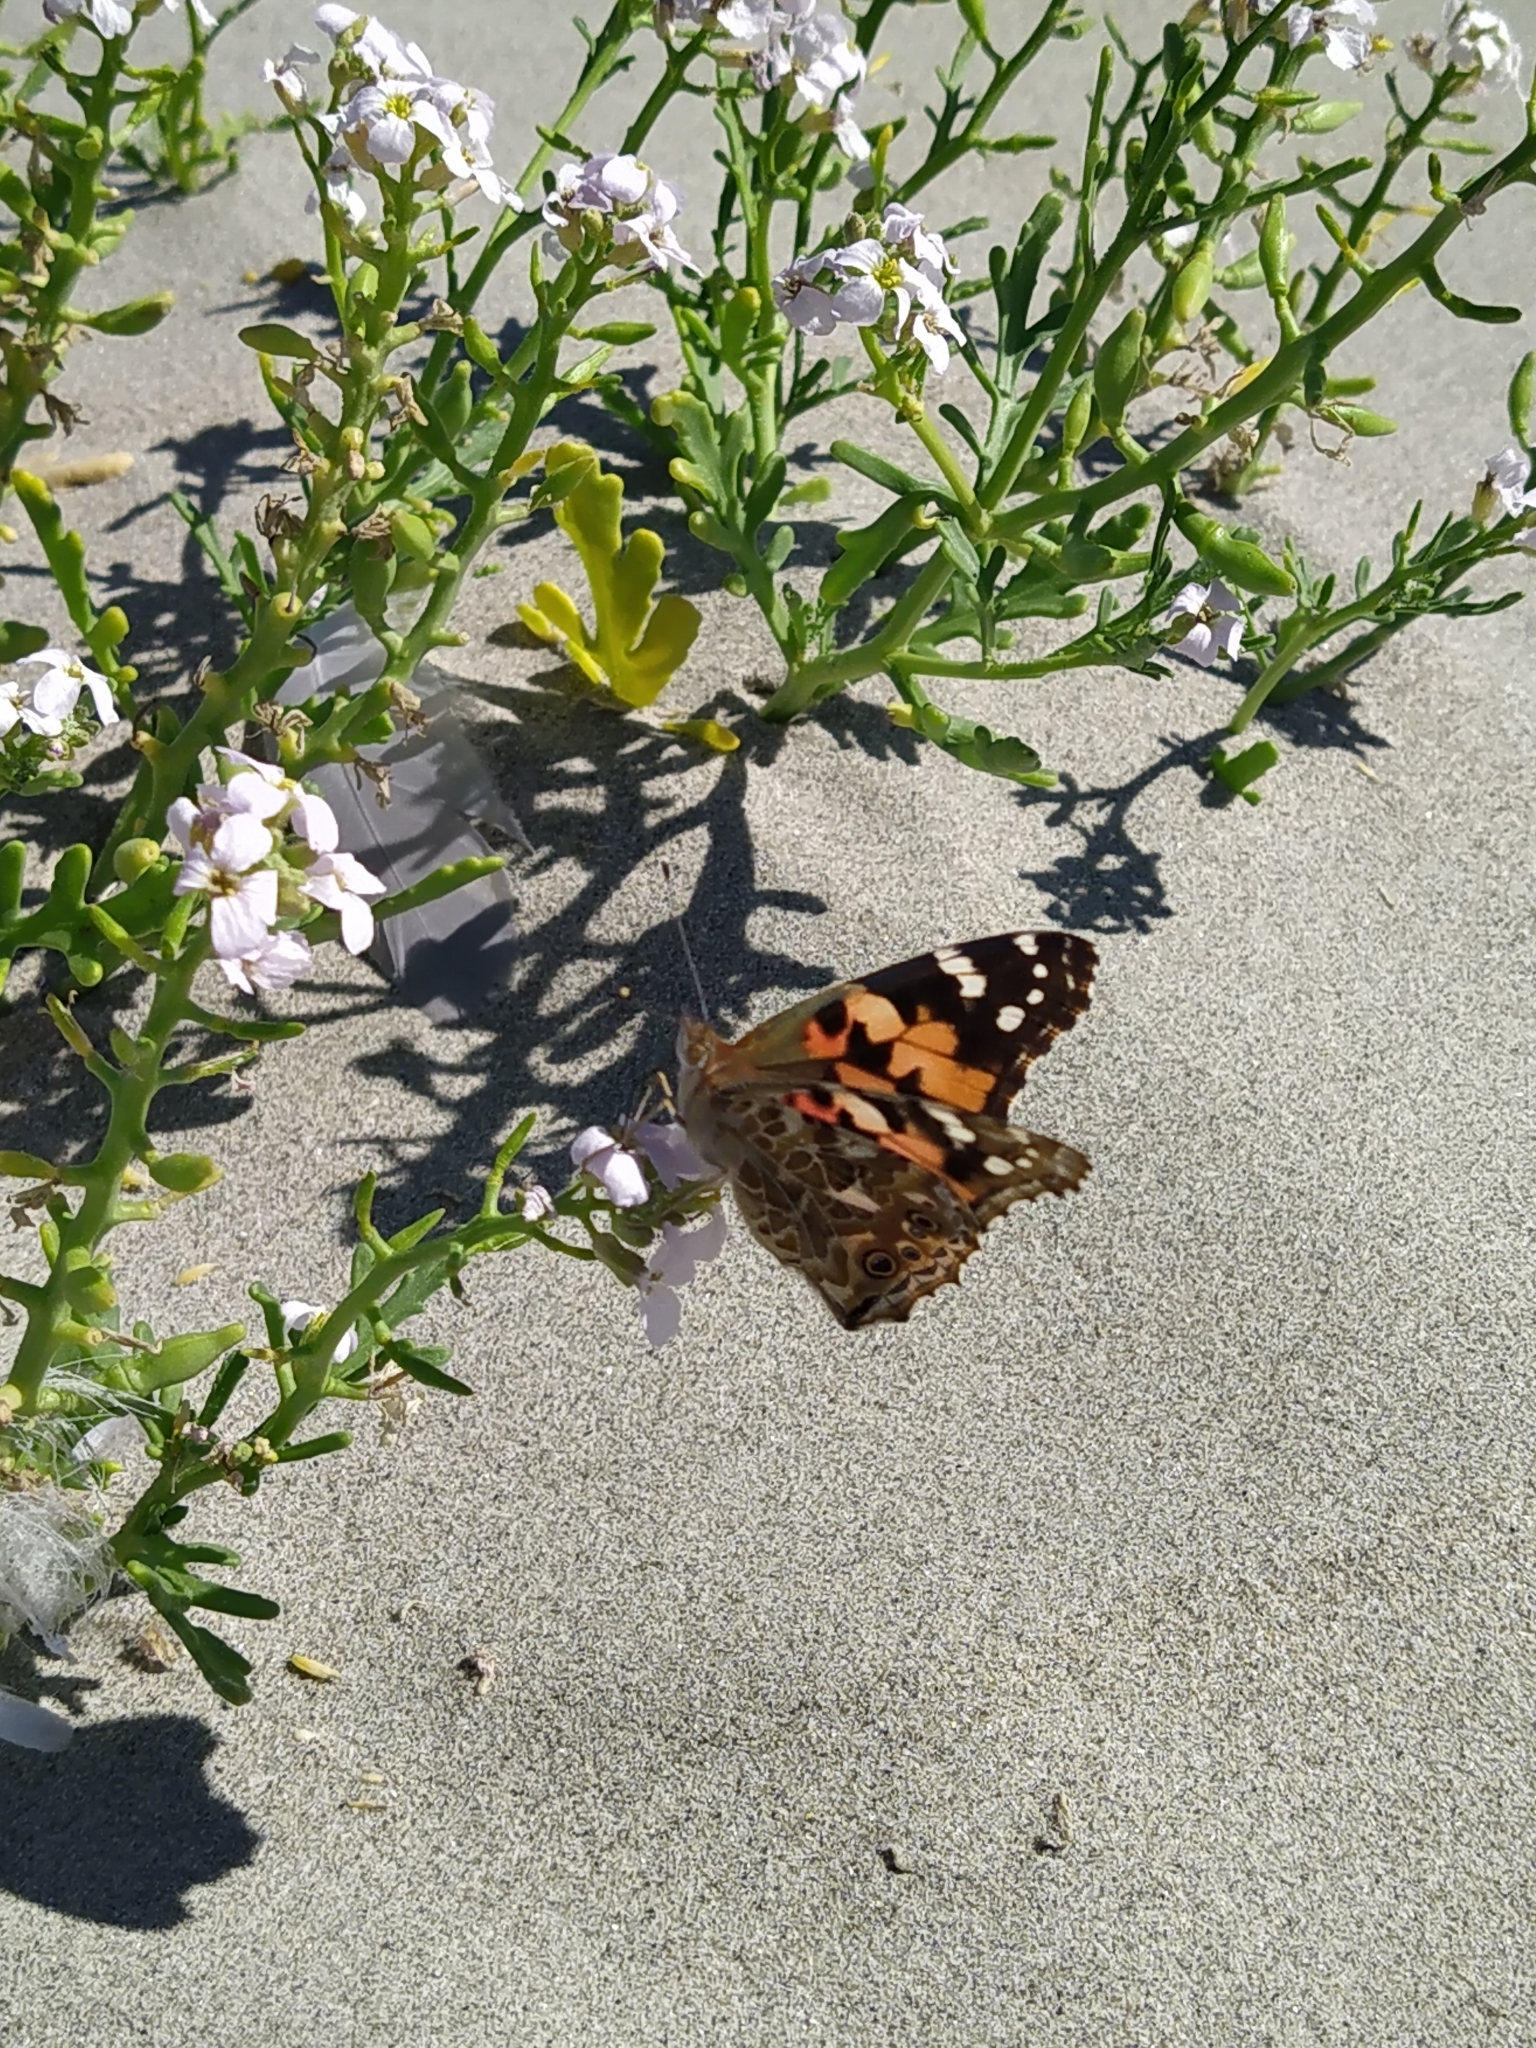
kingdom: Animalia
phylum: Arthropoda
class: Insecta
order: Lepidoptera
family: Nymphalidae
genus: Vanessa
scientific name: Vanessa cardui
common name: Painted lady
